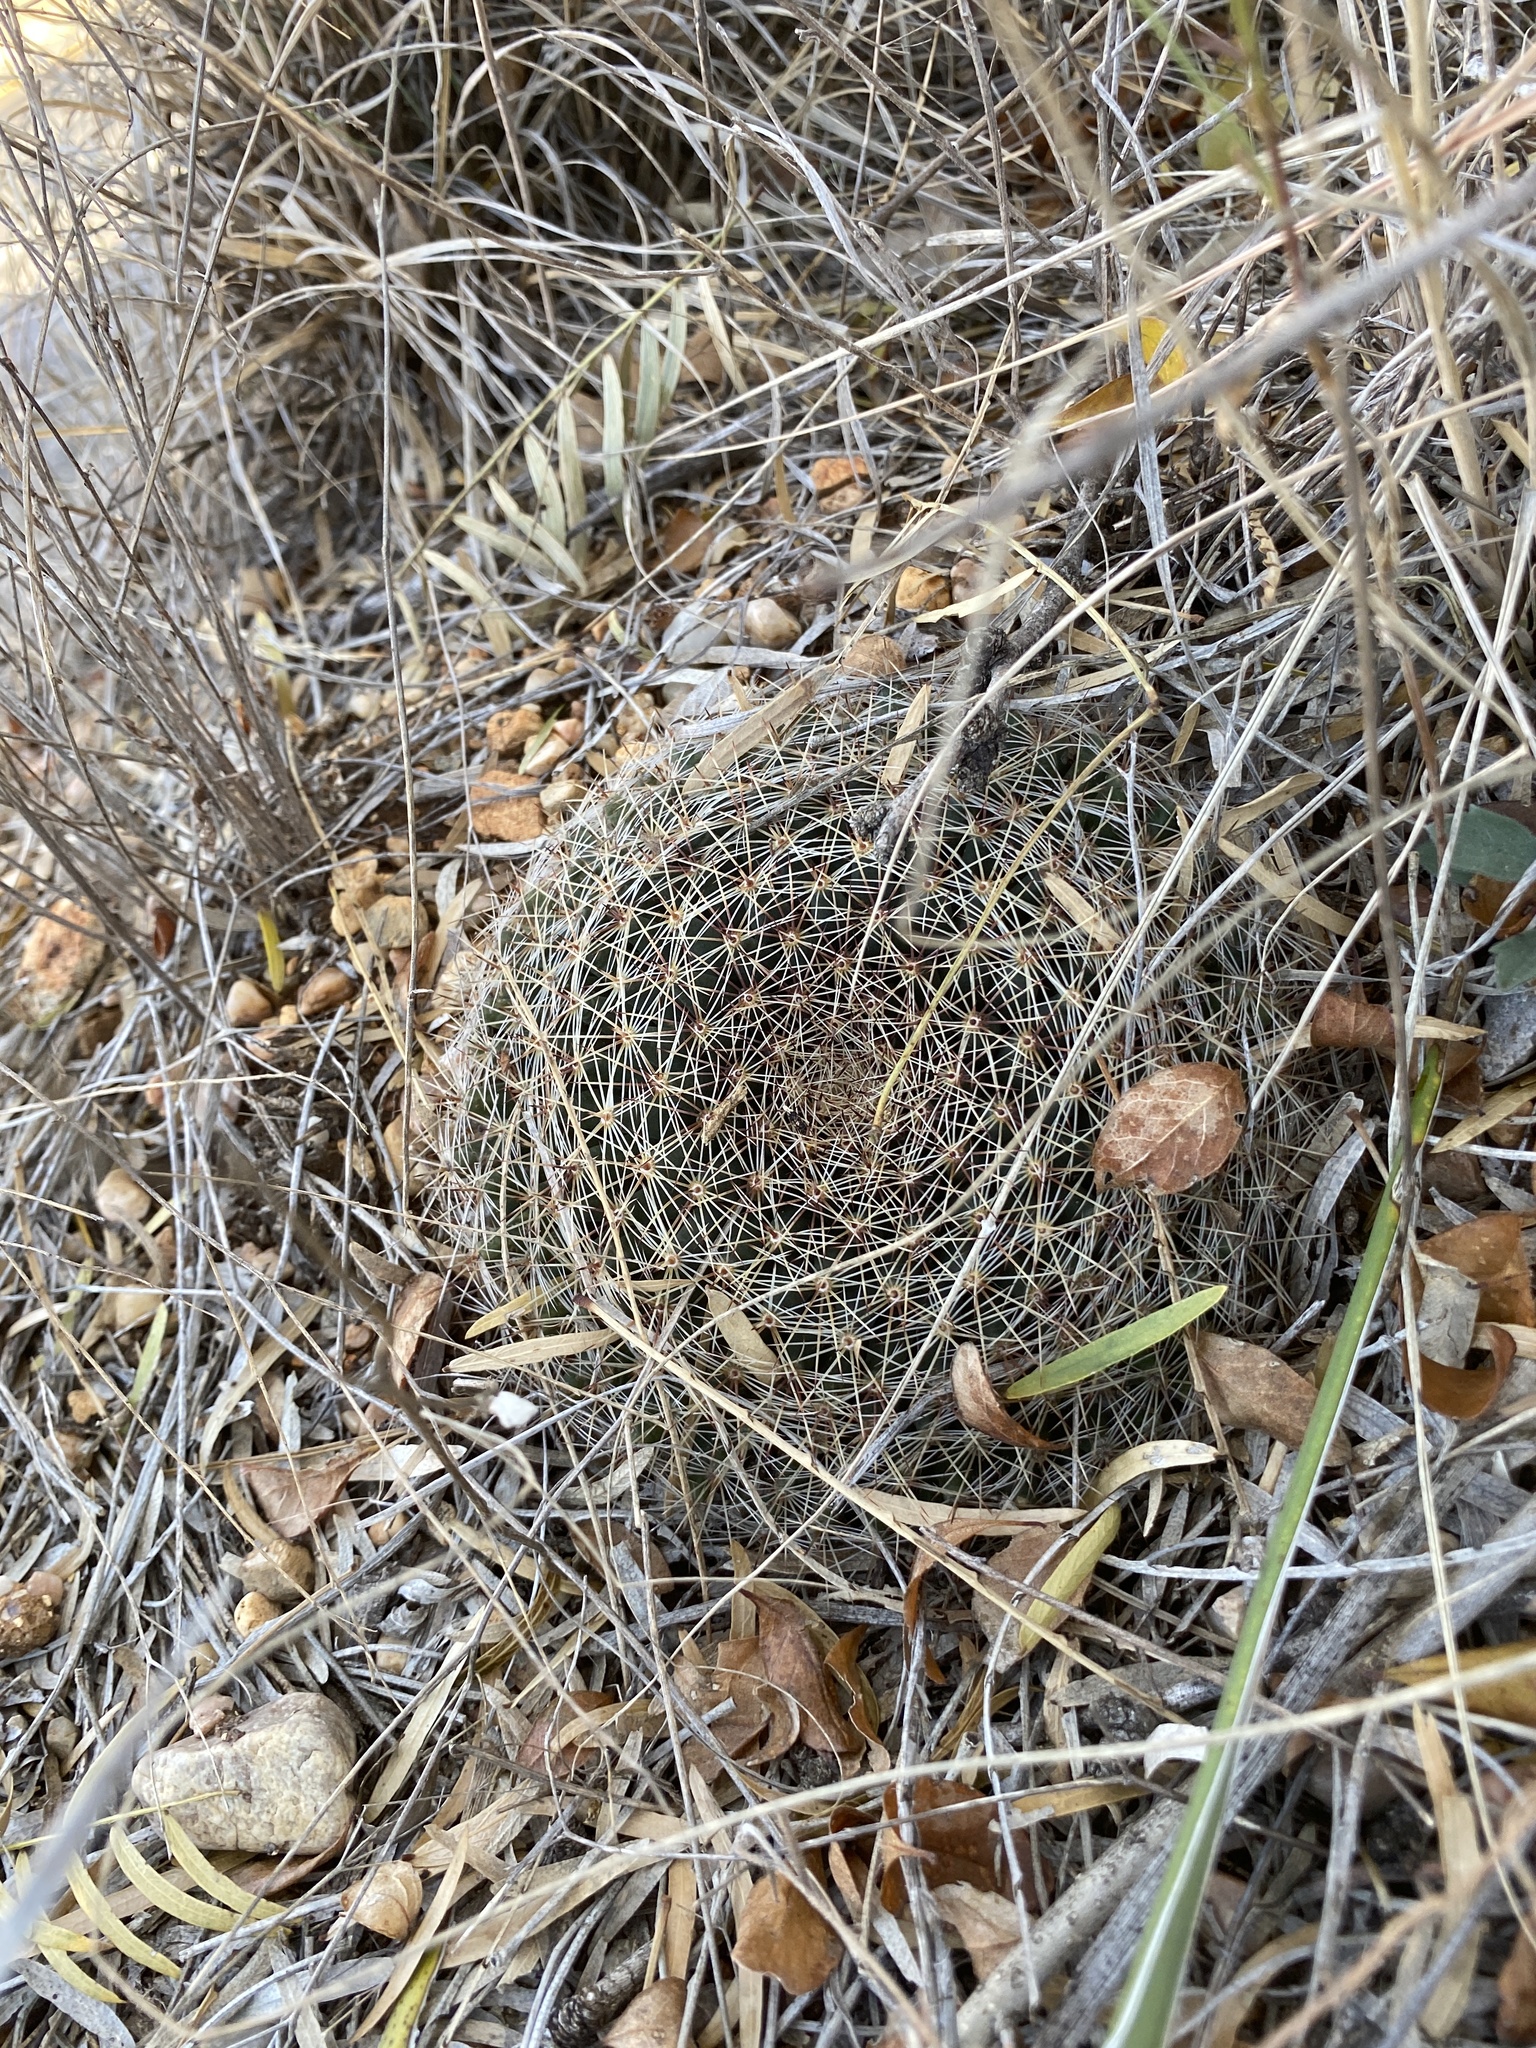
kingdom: Plantae
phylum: Tracheophyta
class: Magnoliopsida
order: Caryophyllales
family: Cactaceae
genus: Mammillaria
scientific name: Mammillaria heyderi
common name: Little nipple cactus
